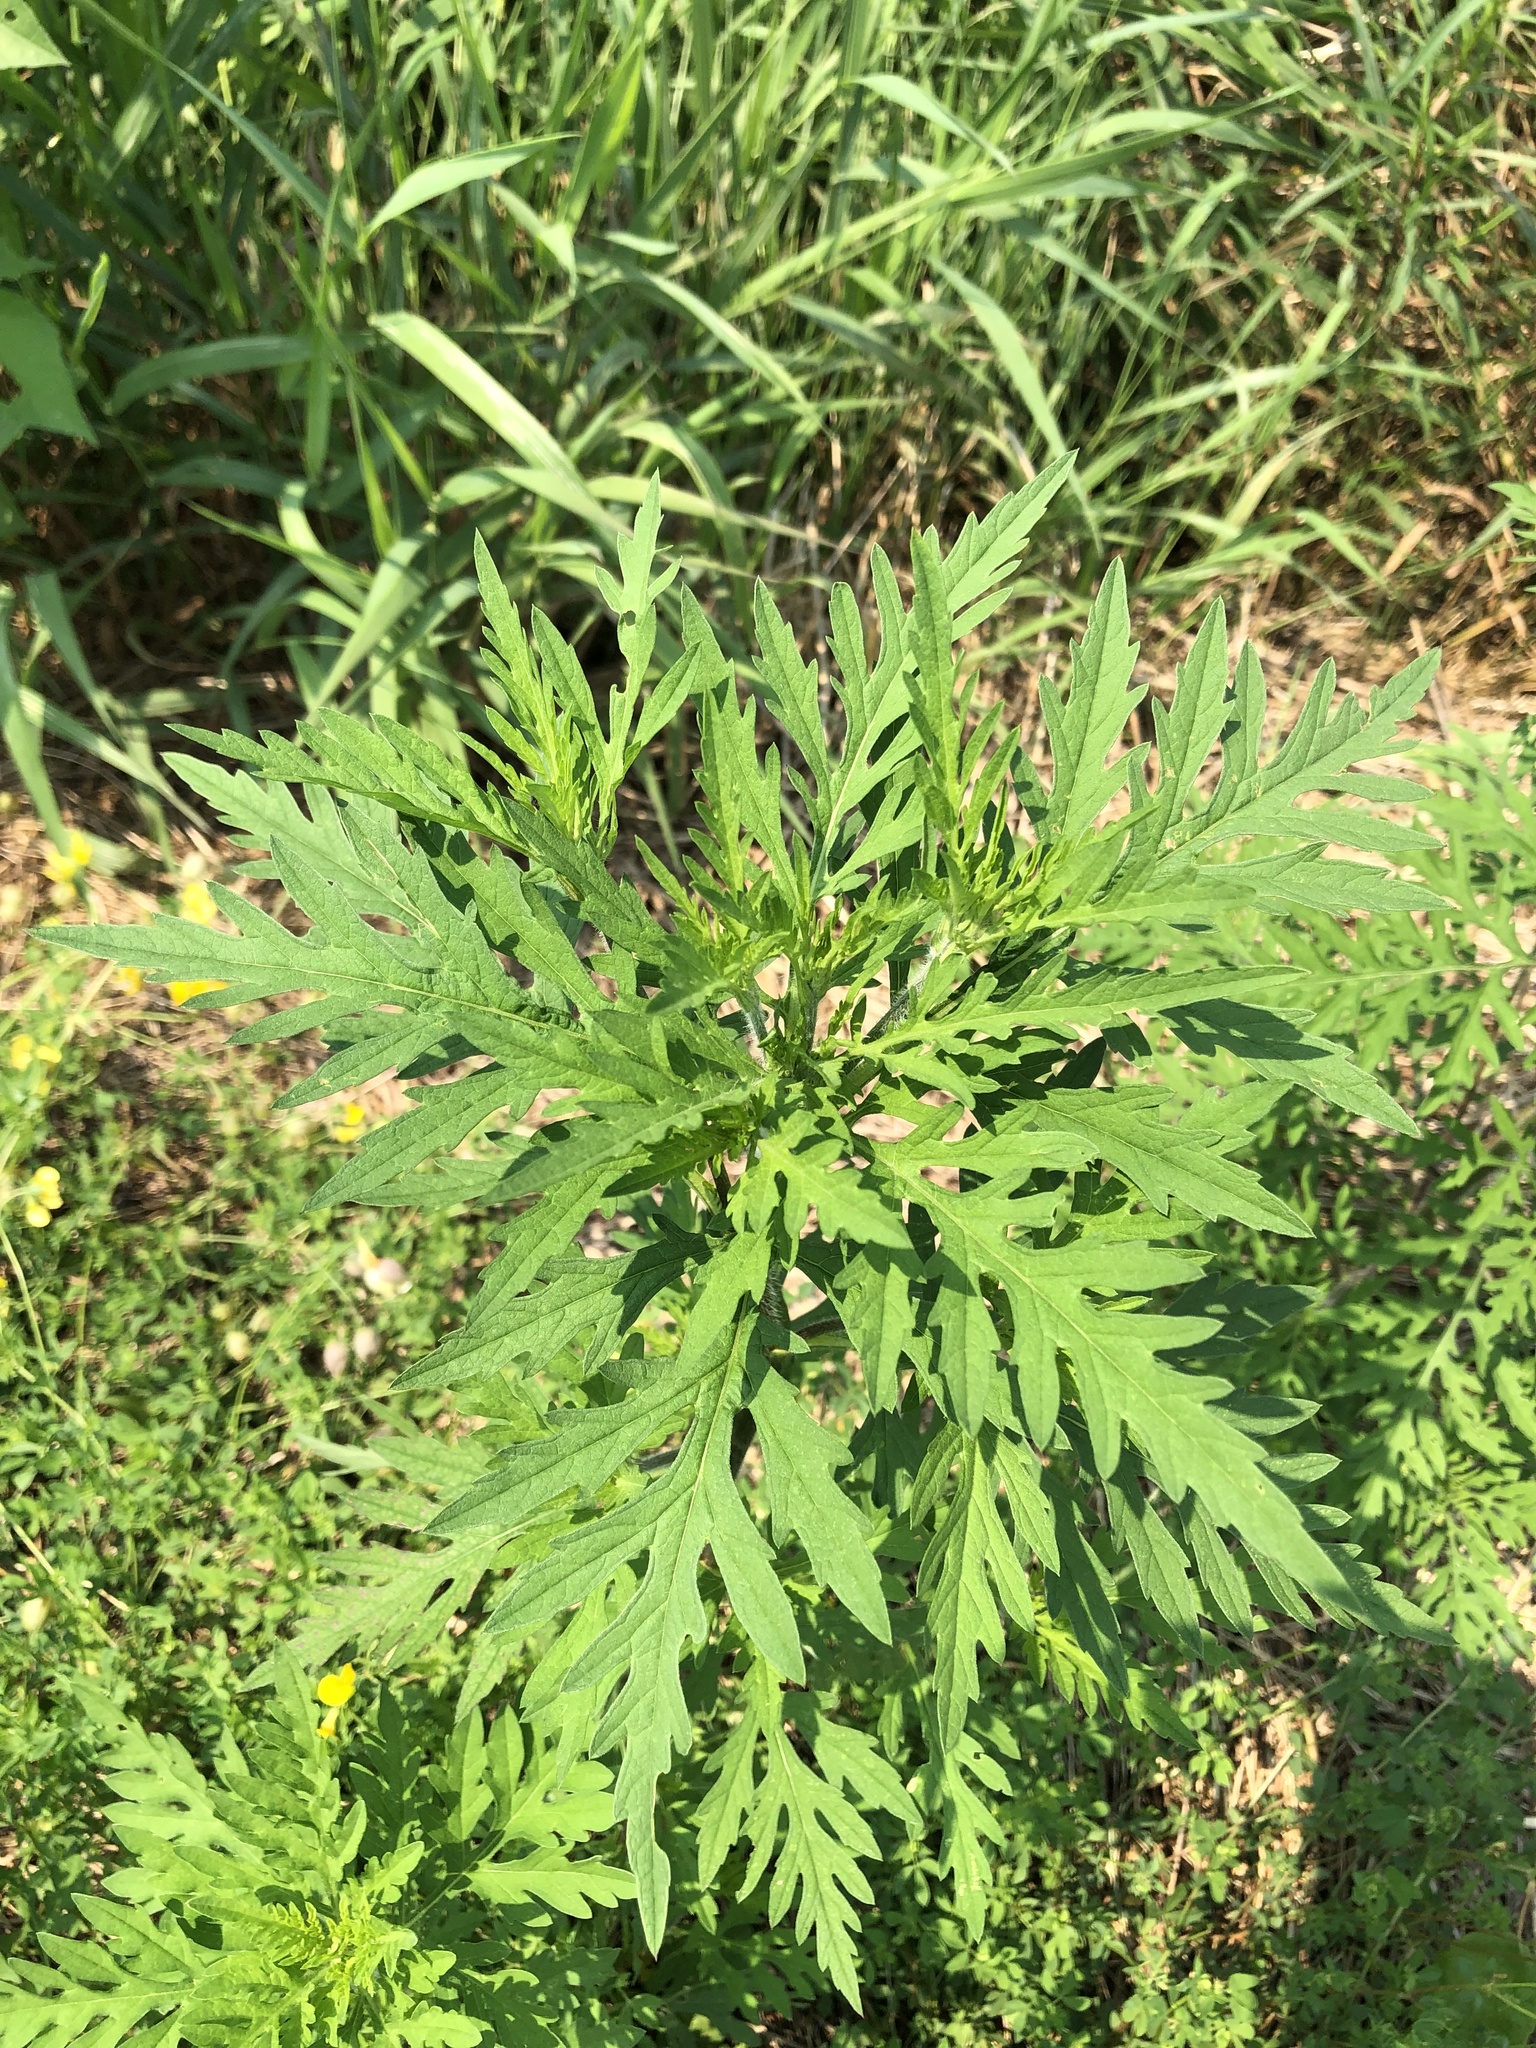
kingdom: Plantae
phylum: Tracheophyta
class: Magnoliopsida
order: Asterales
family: Asteraceae
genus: Ambrosia
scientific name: Ambrosia artemisiifolia
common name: Annual ragweed
